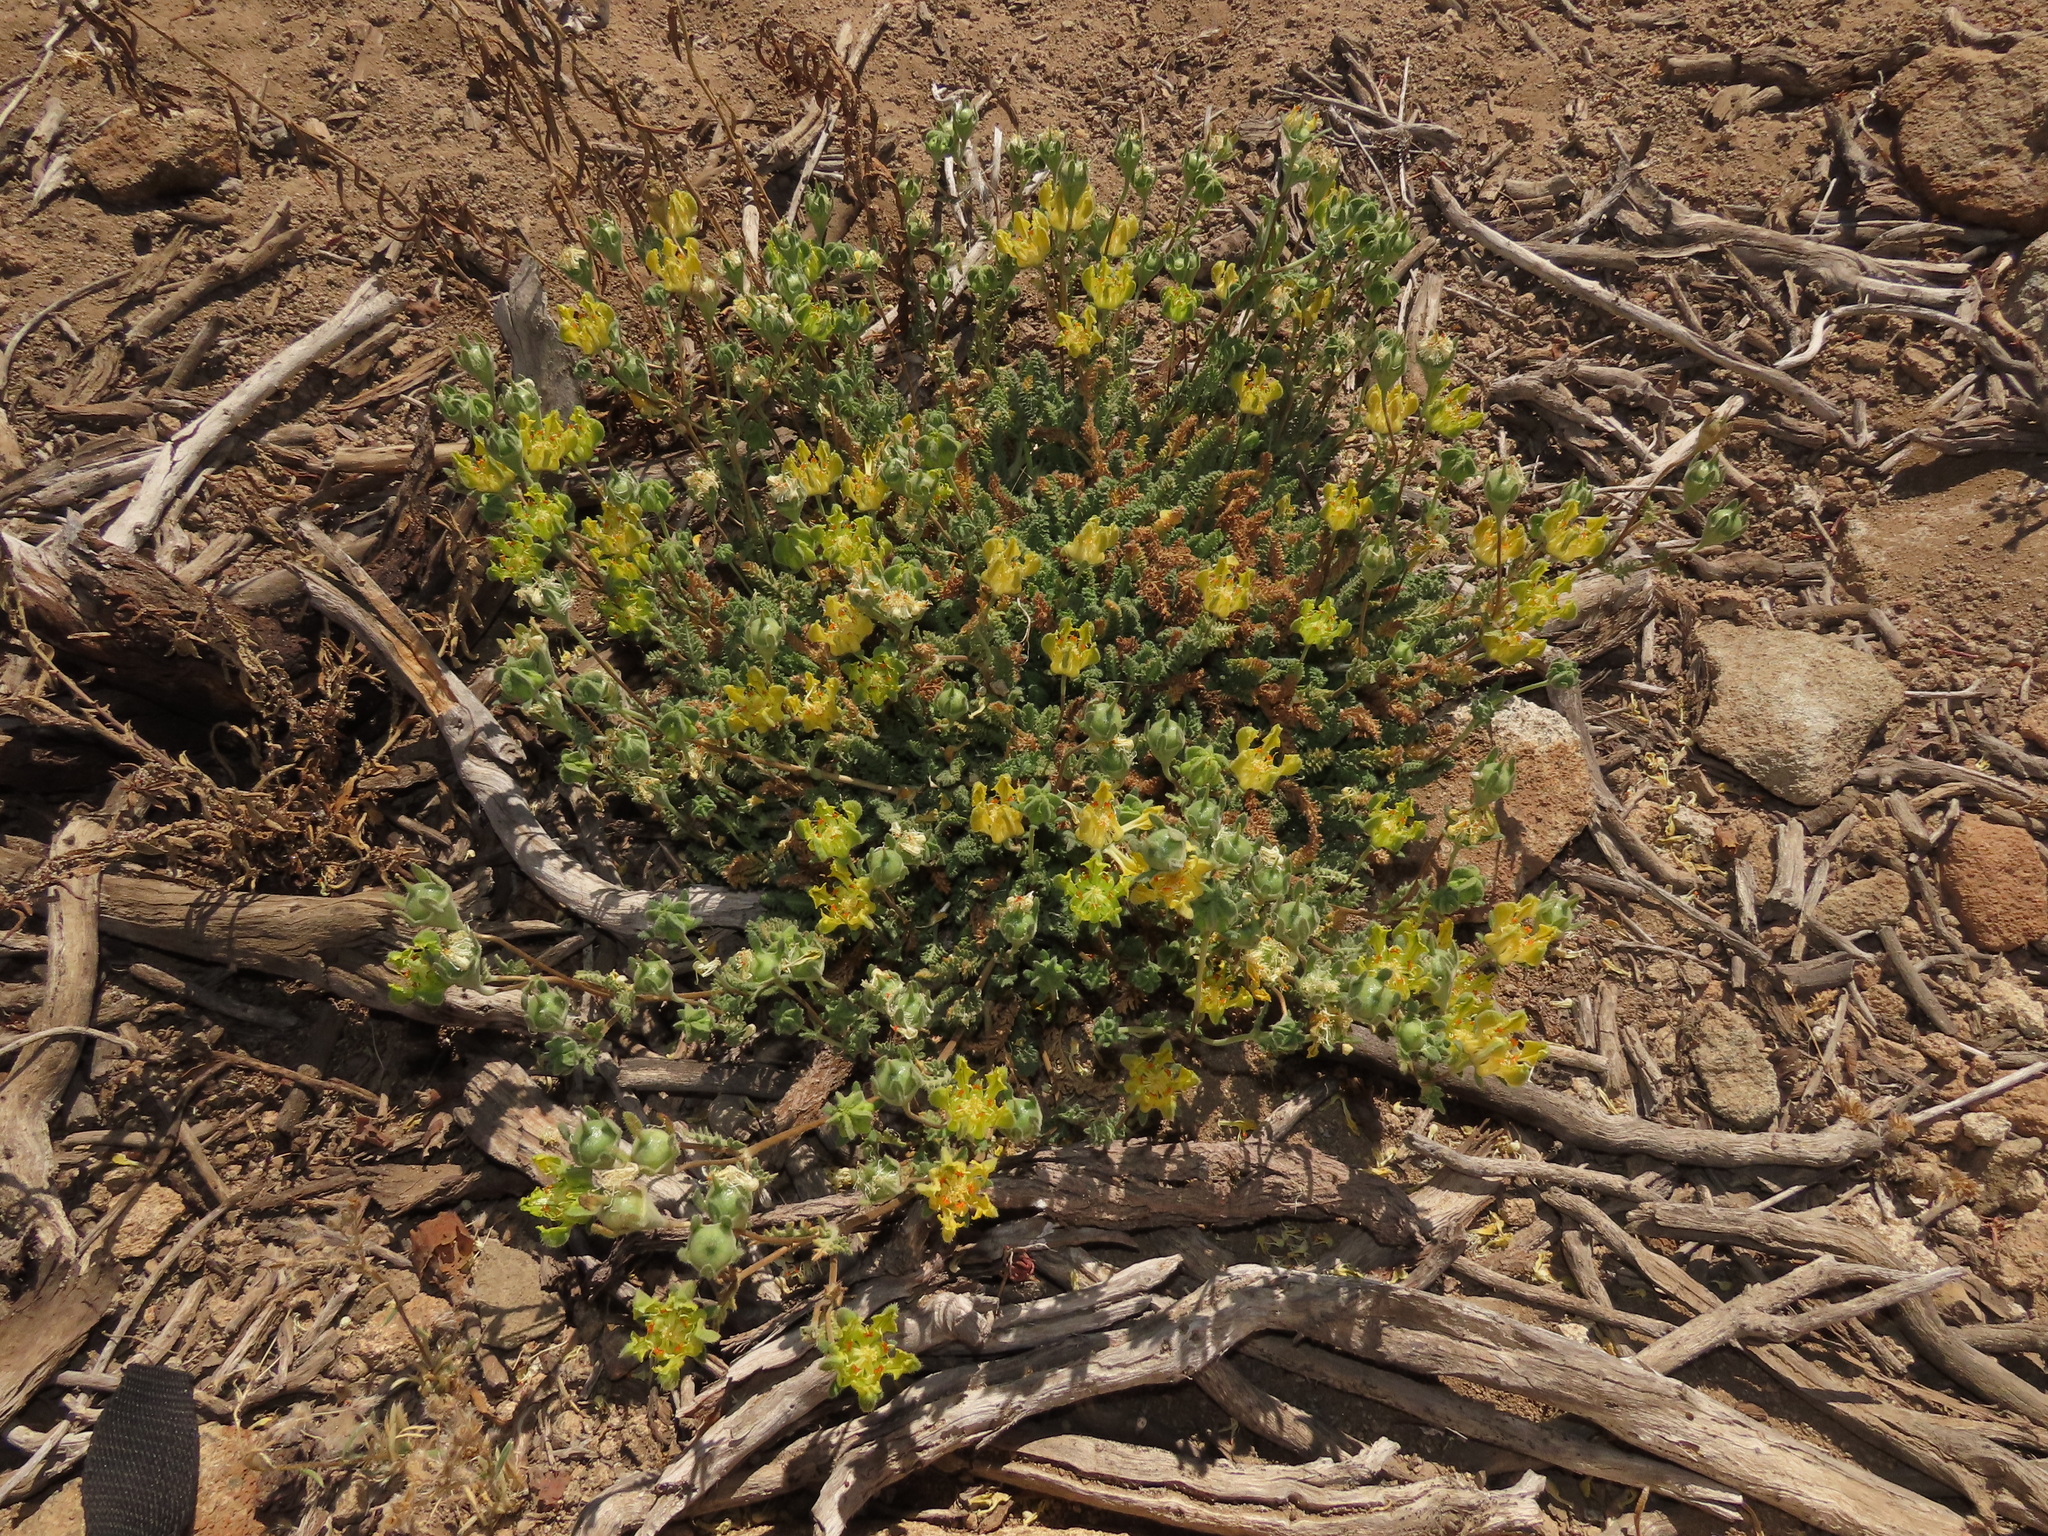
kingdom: Plantae
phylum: Tracheophyta
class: Magnoliopsida
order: Cornales
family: Loasaceae
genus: Loasa
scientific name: Loasa sigmoidea
